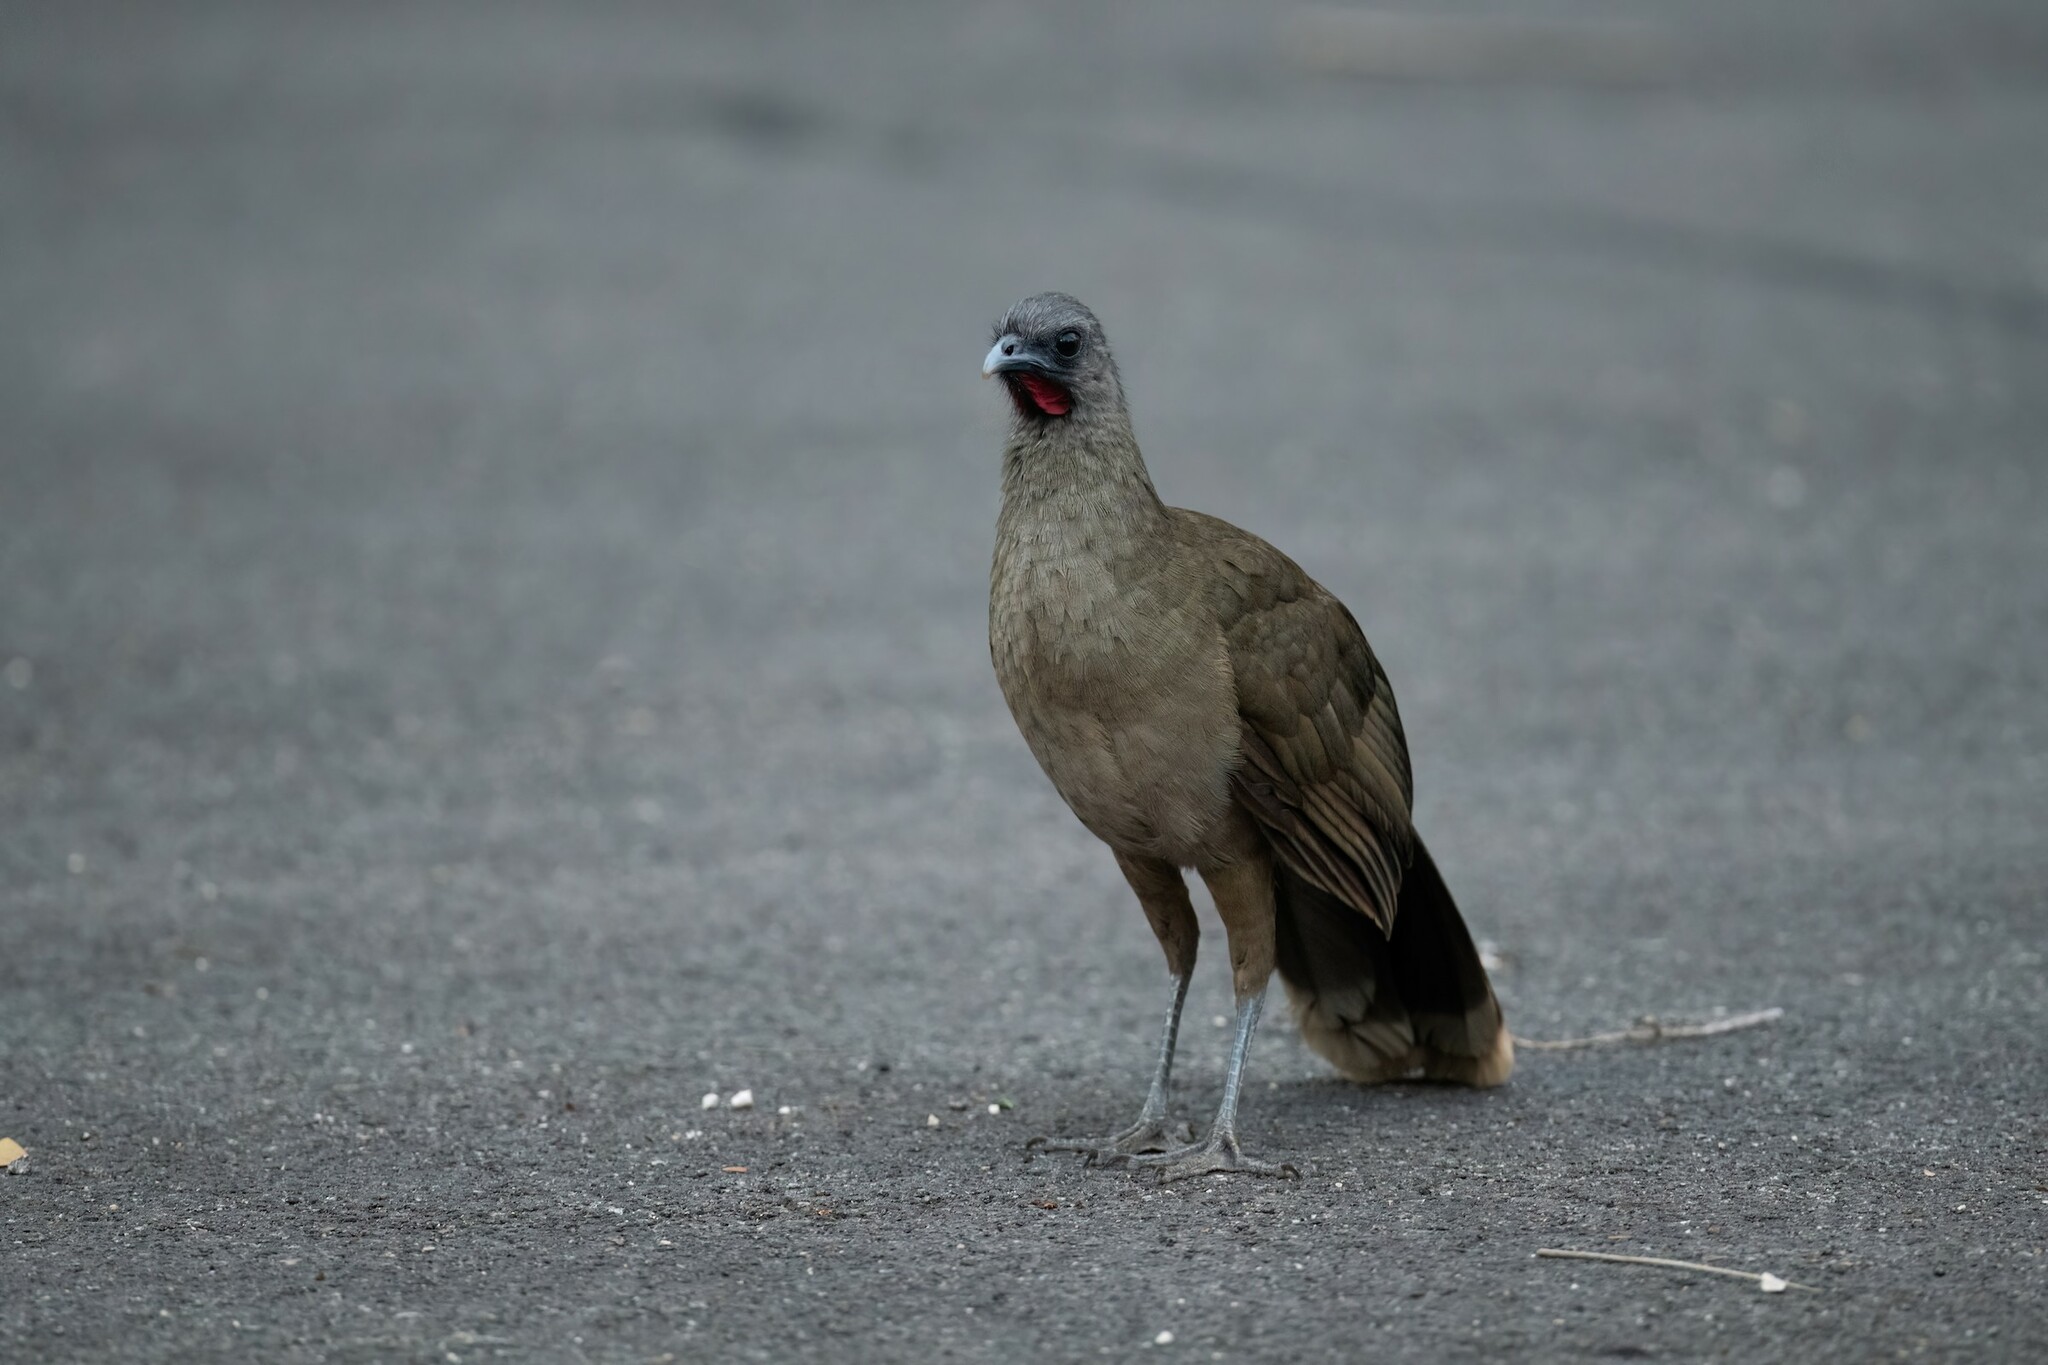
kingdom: Animalia
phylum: Chordata
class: Aves
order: Galliformes
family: Cracidae
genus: Ortalis
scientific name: Ortalis vetula
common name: Plain chachalaca
